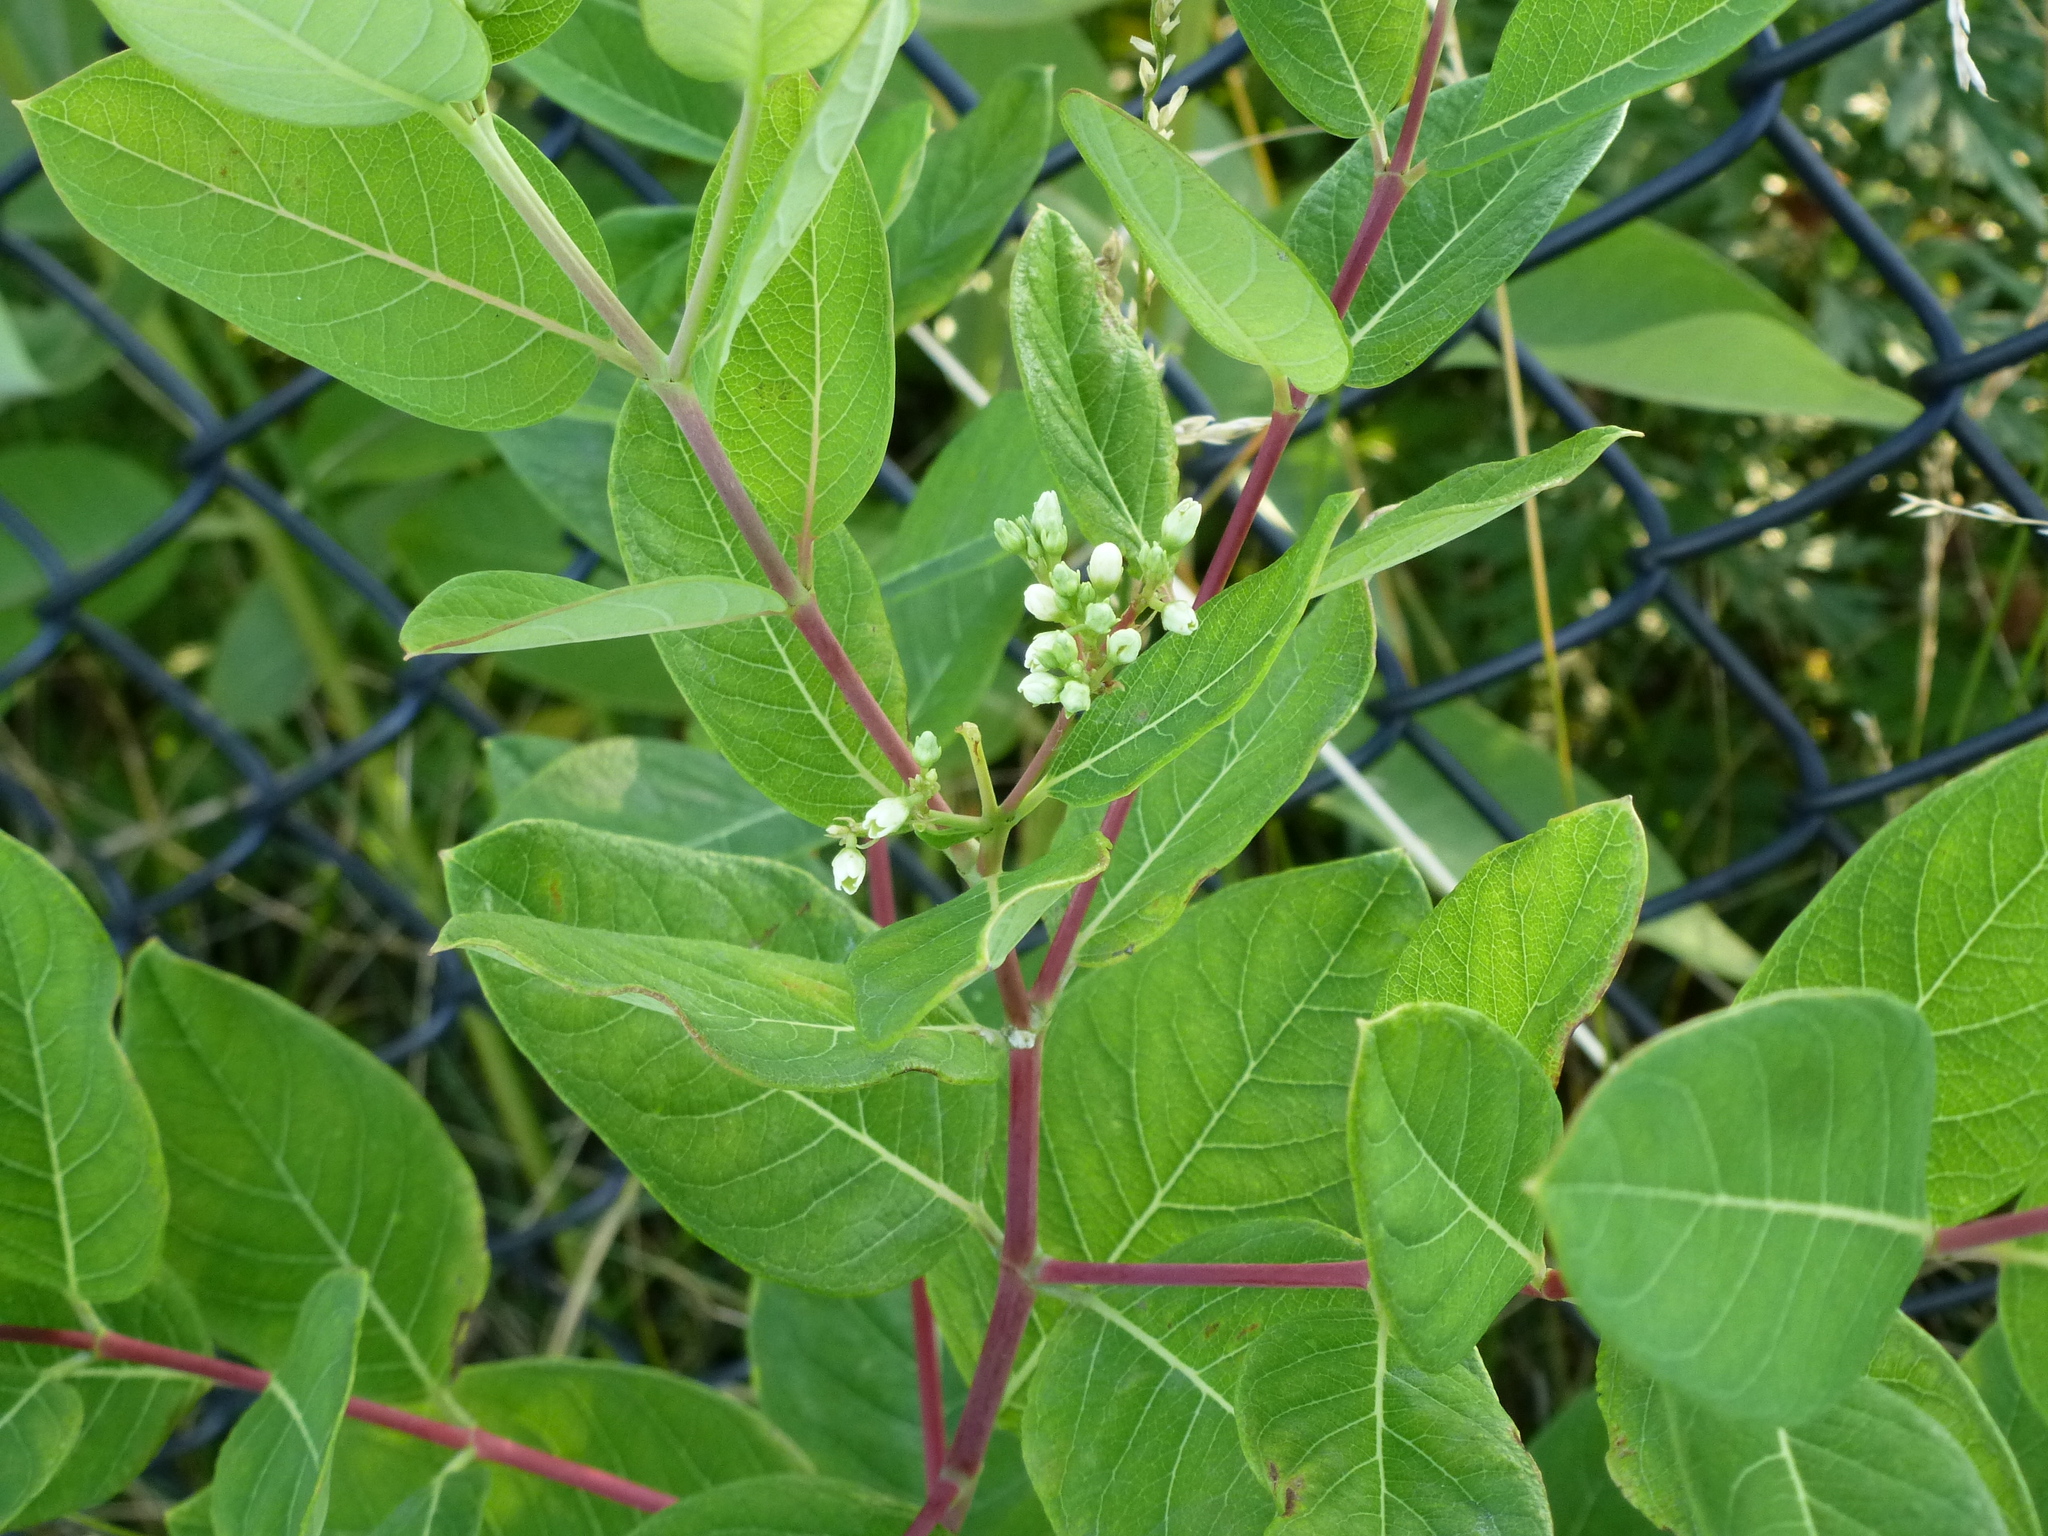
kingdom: Plantae
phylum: Tracheophyta
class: Magnoliopsida
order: Gentianales
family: Apocynaceae
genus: Apocynum
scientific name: Apocynum cannabinum
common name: Hemp dogbane
